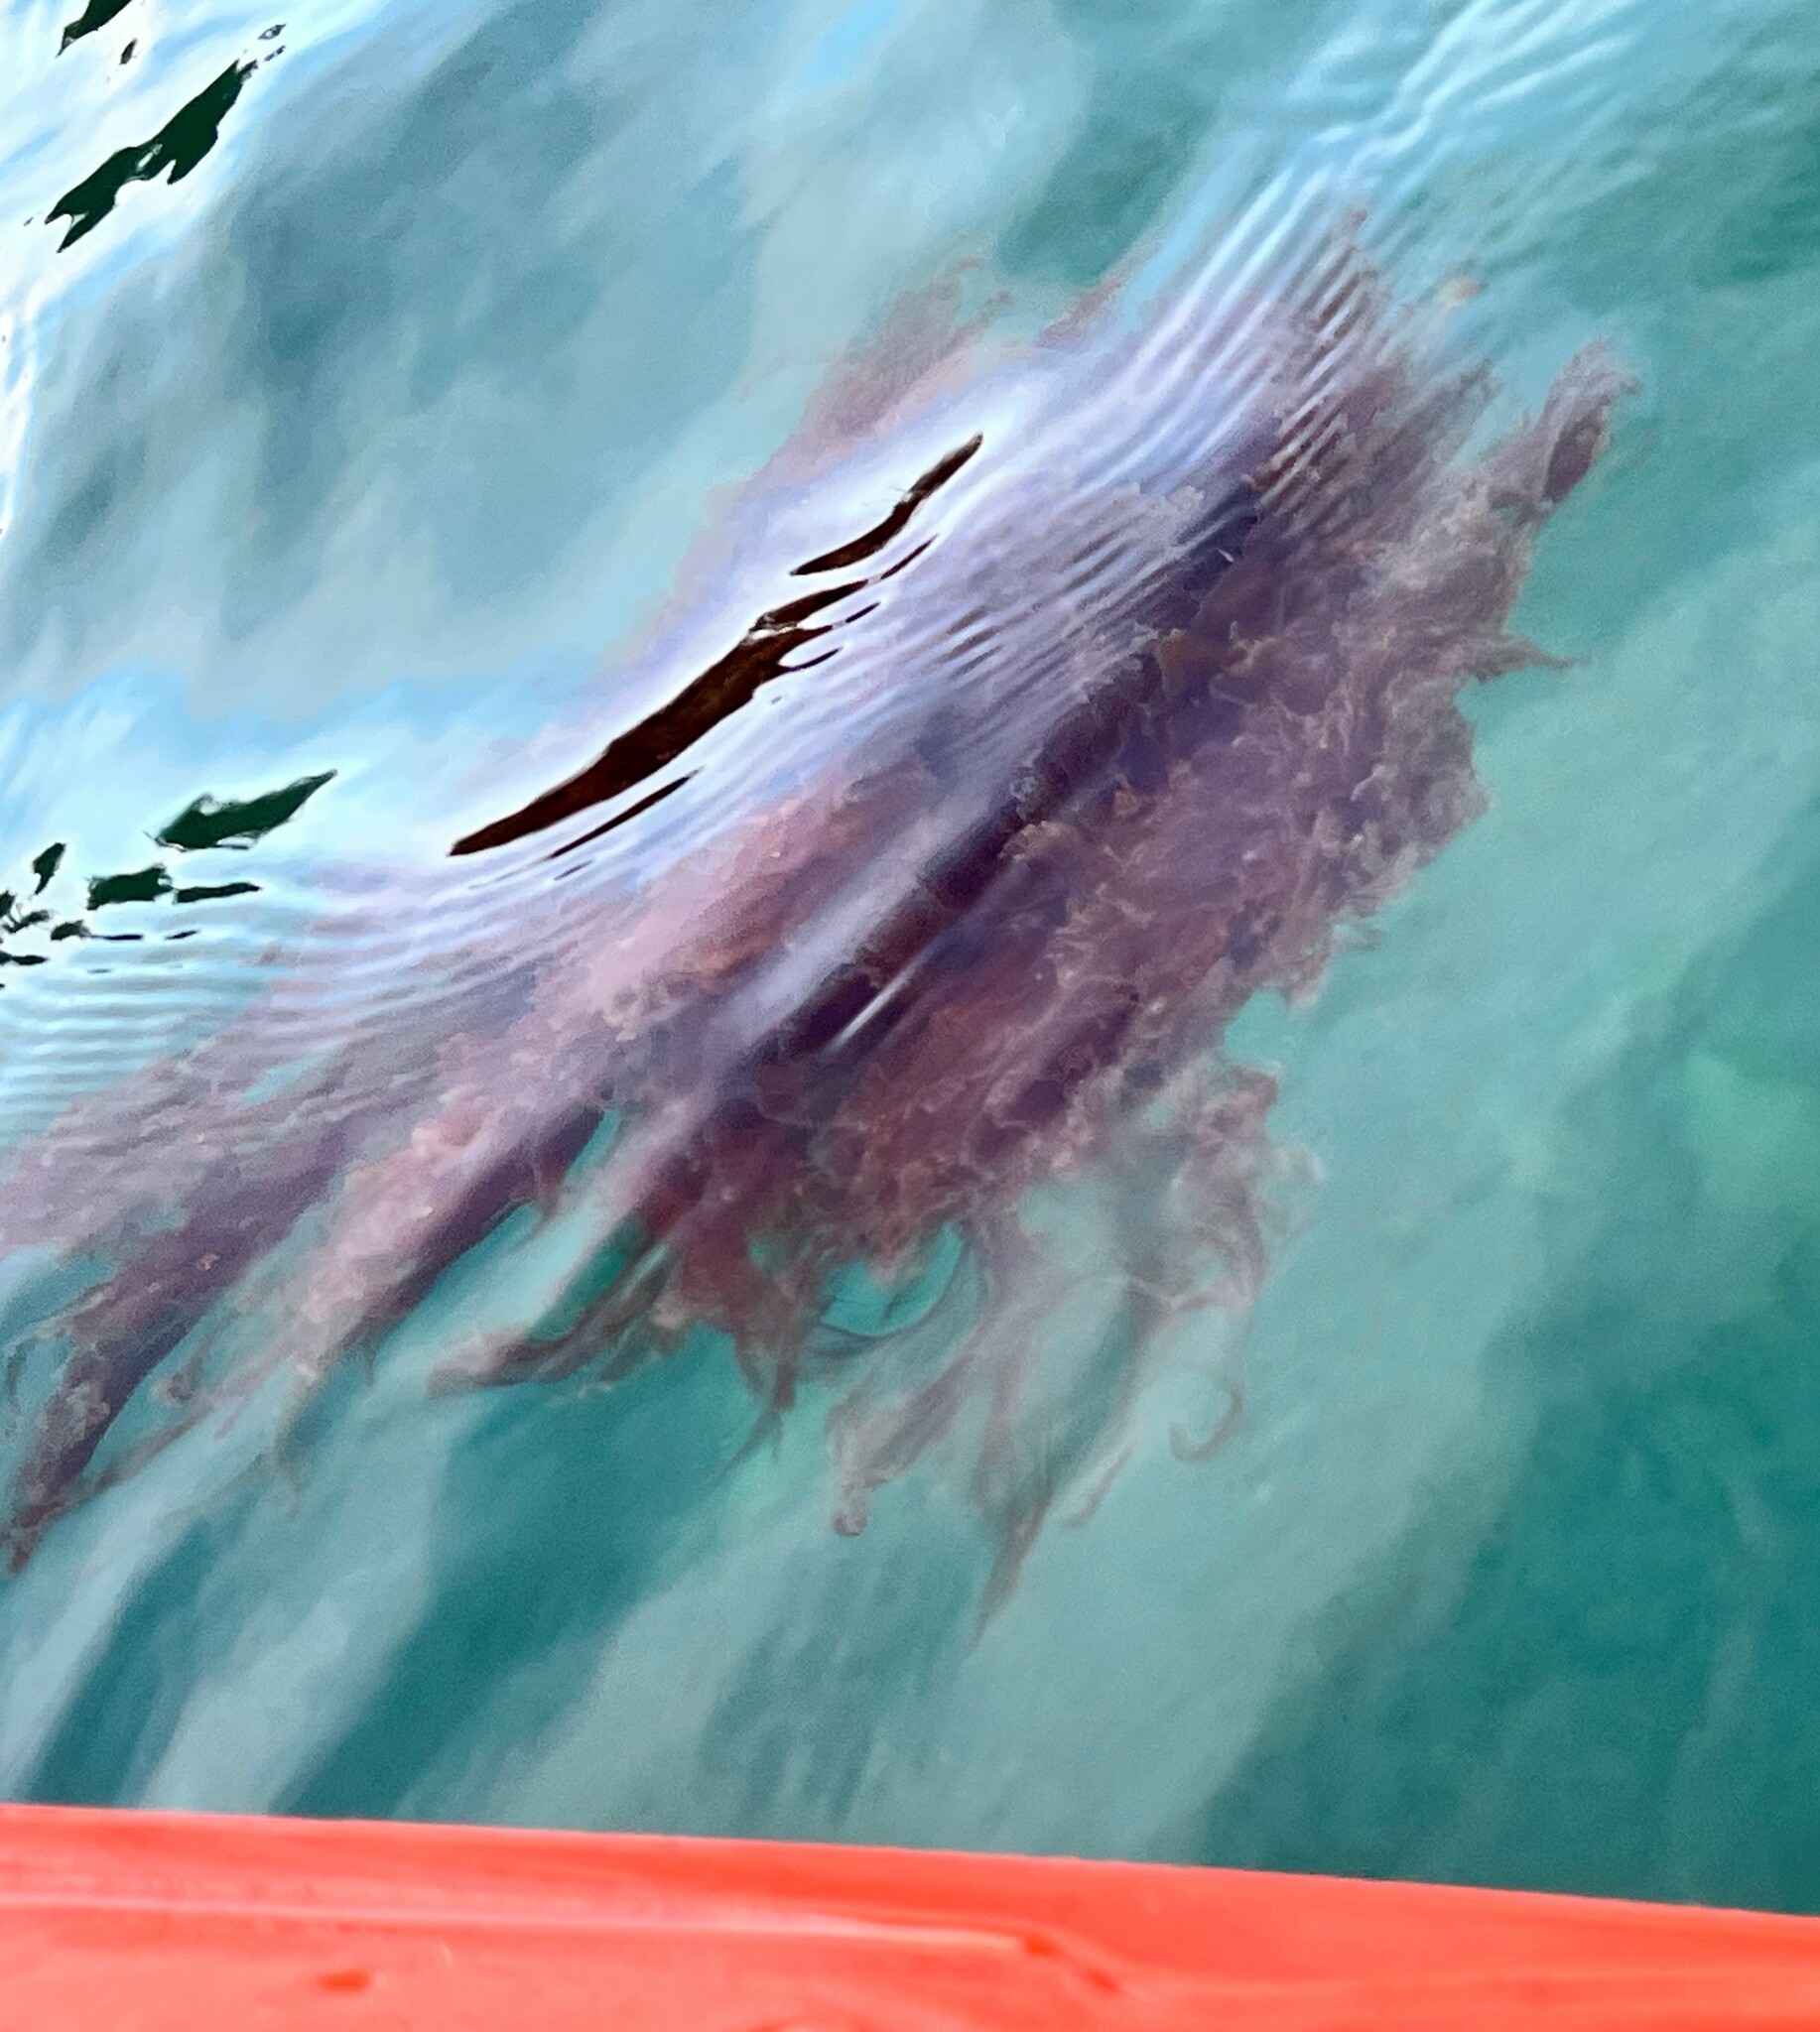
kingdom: Animalia
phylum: Cnidaria
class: Scyphozoa
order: Semaeostomeae
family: Cyaneidae
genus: Cyanea
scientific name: Cyanea ferruginea
